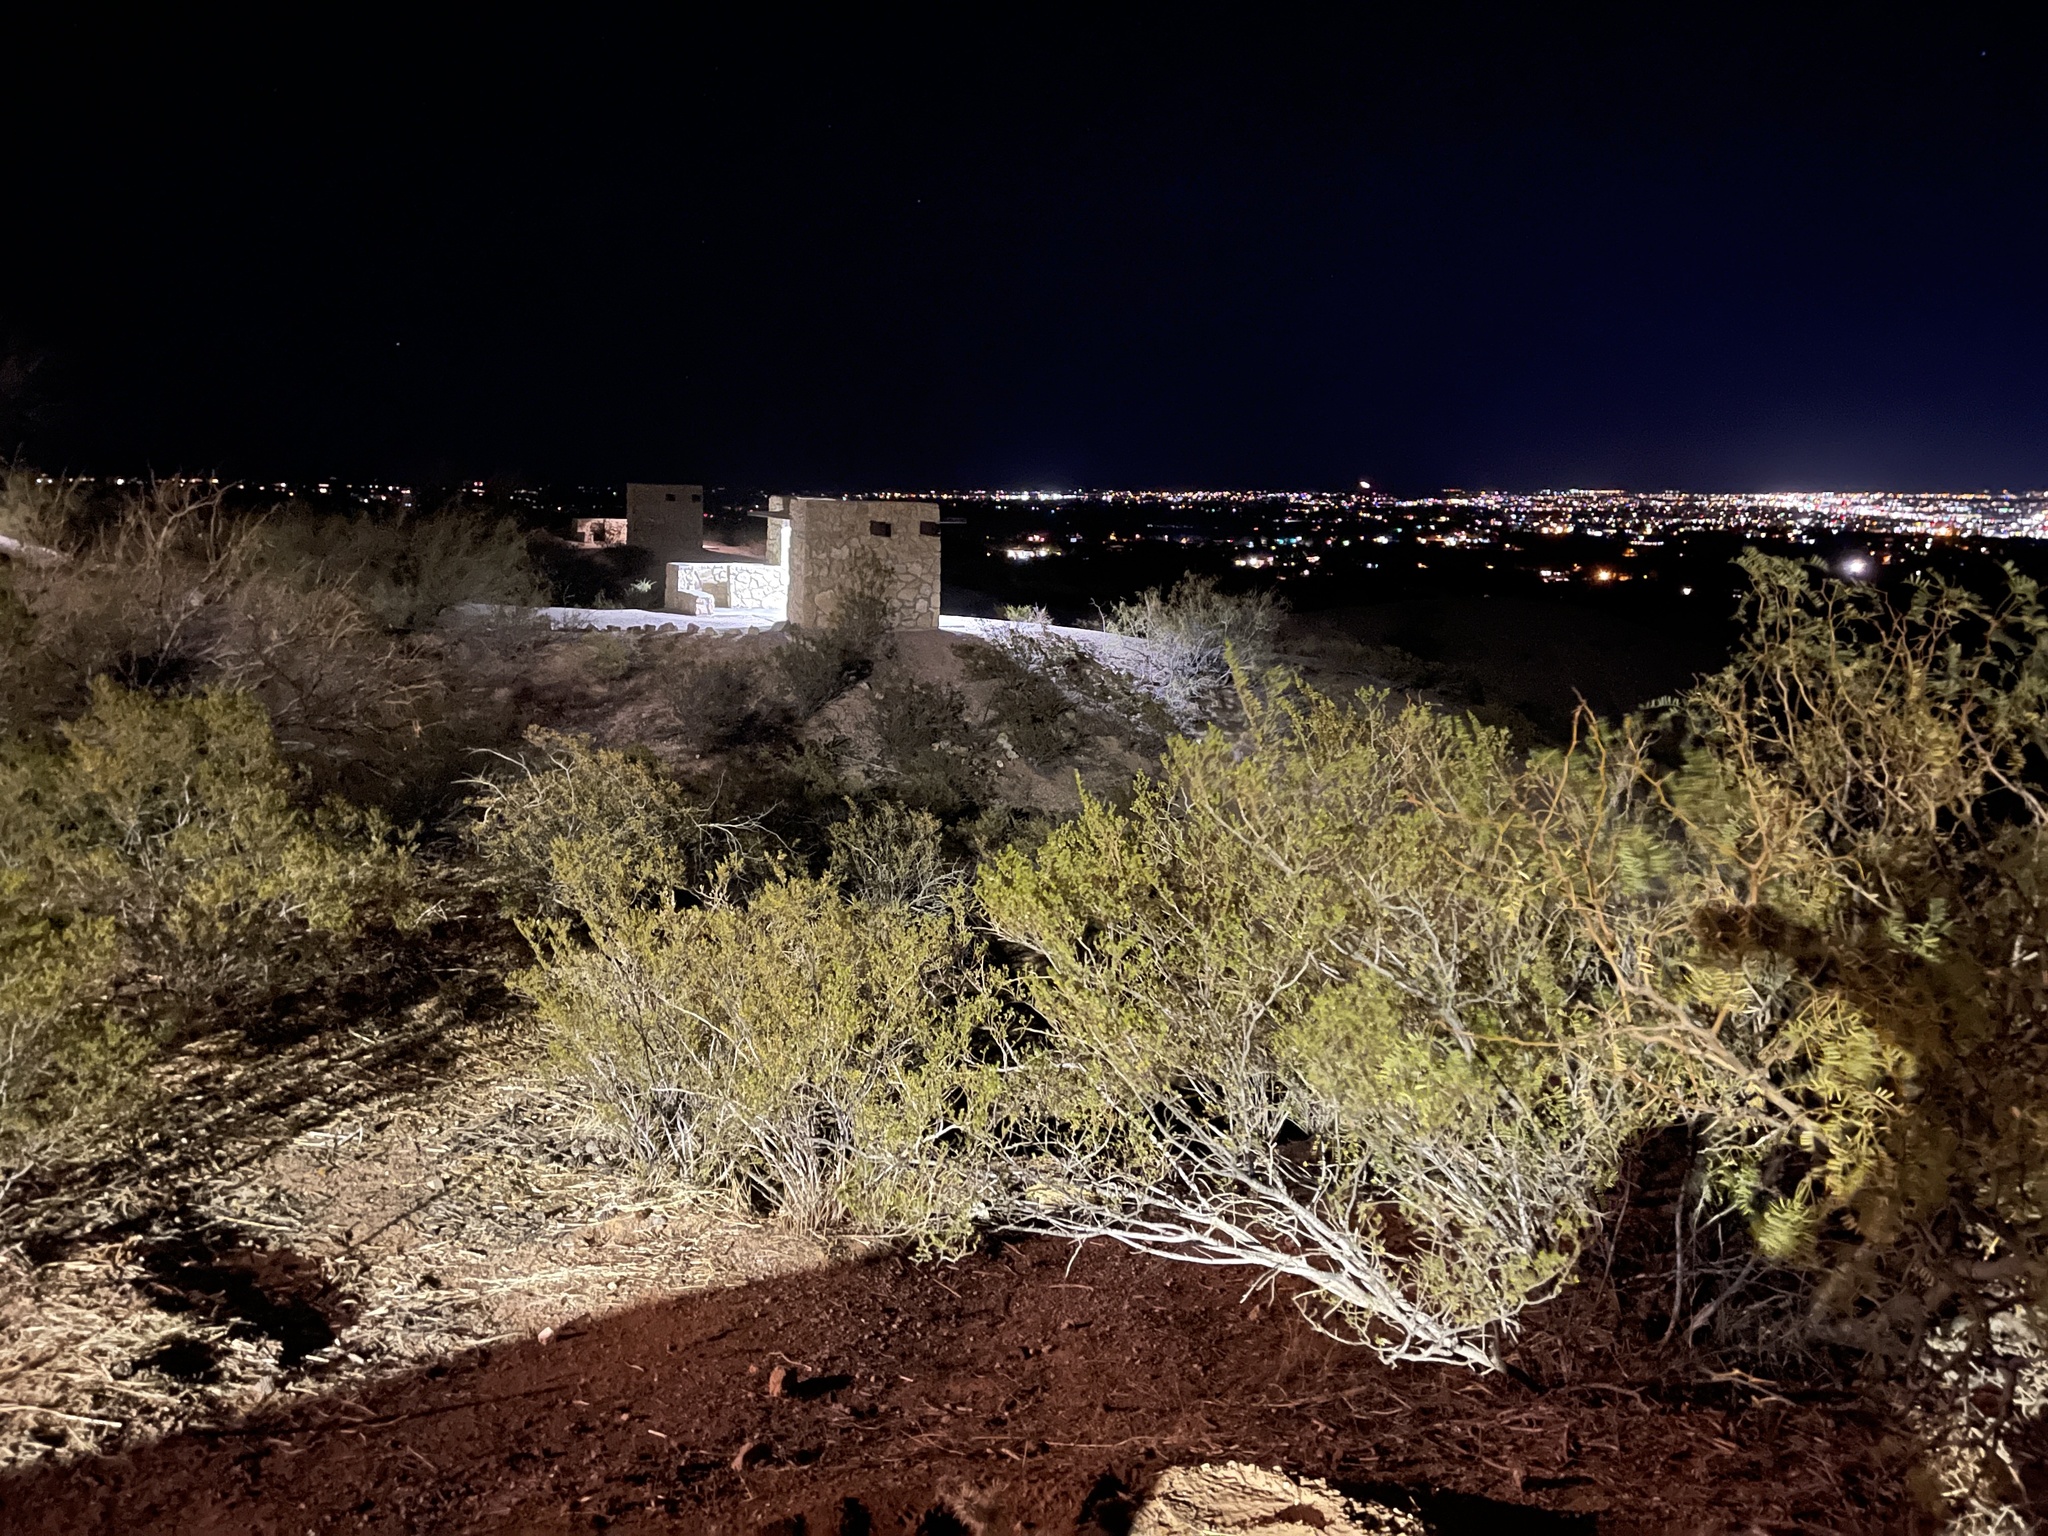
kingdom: Plantae
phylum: Tracheophyta
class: Magnoliopsida
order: Zygophyllales
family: Zygophyllaceae
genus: Larrea
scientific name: Larrea tridentata
